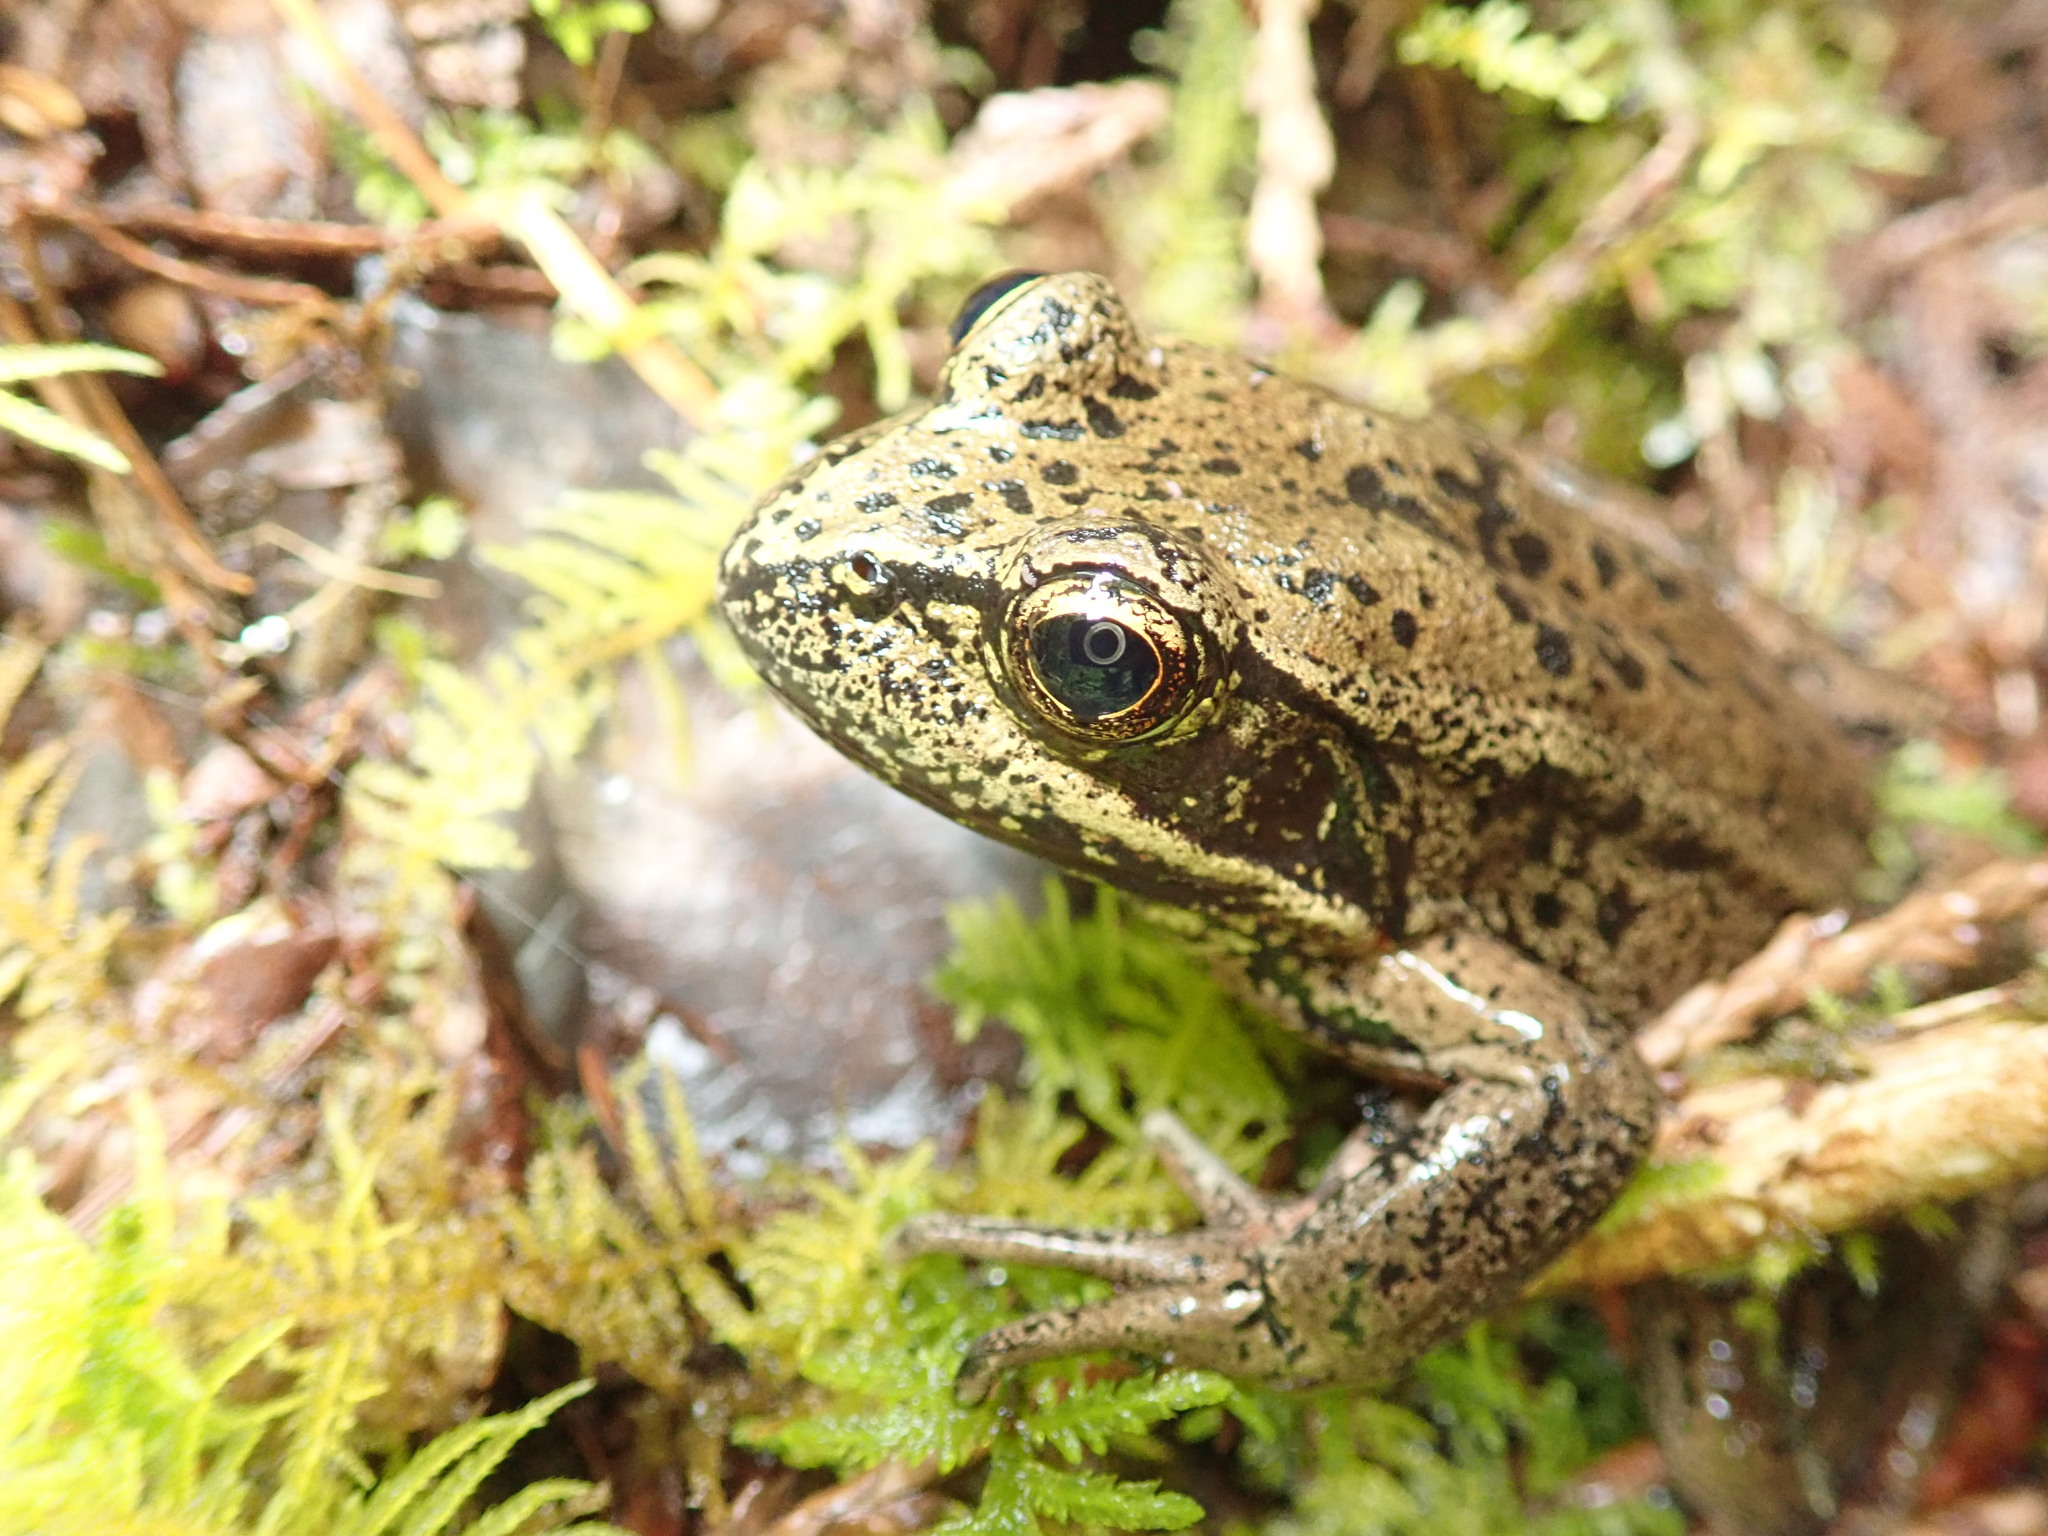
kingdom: Animalia
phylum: Chordata
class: Amphibia
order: Anura
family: Ranidae
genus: Rana
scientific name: Rana aurora
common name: Red-legged frog
